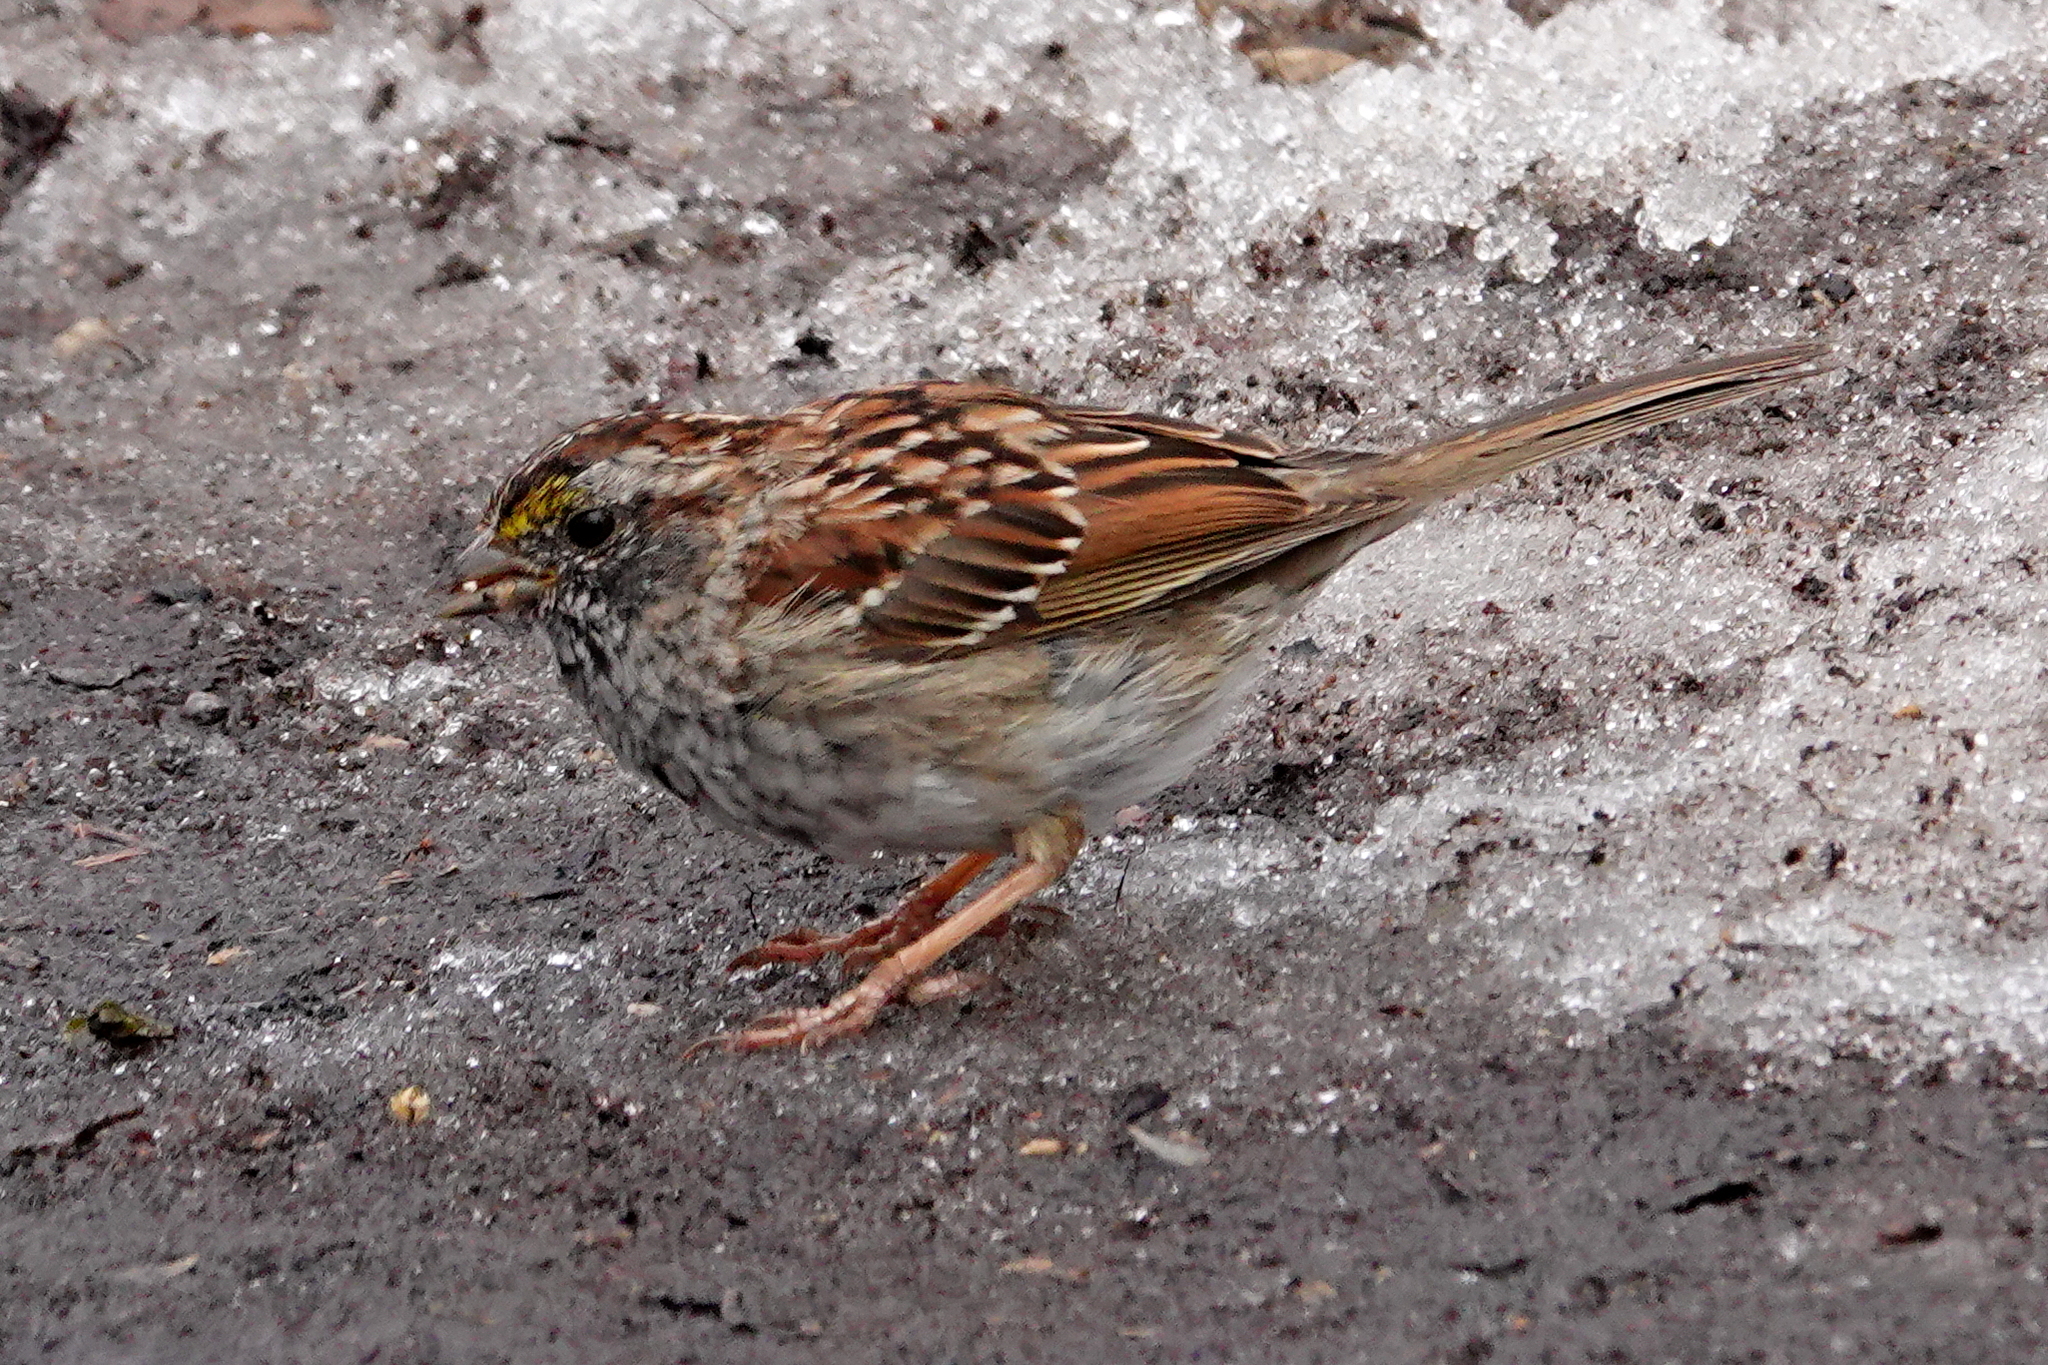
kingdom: Animalia
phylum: Chordata
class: Aves
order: Passeriformes
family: Passerellidae
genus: Zonotrichia
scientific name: Zonotrichia albicollis
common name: White-throated sparrow
